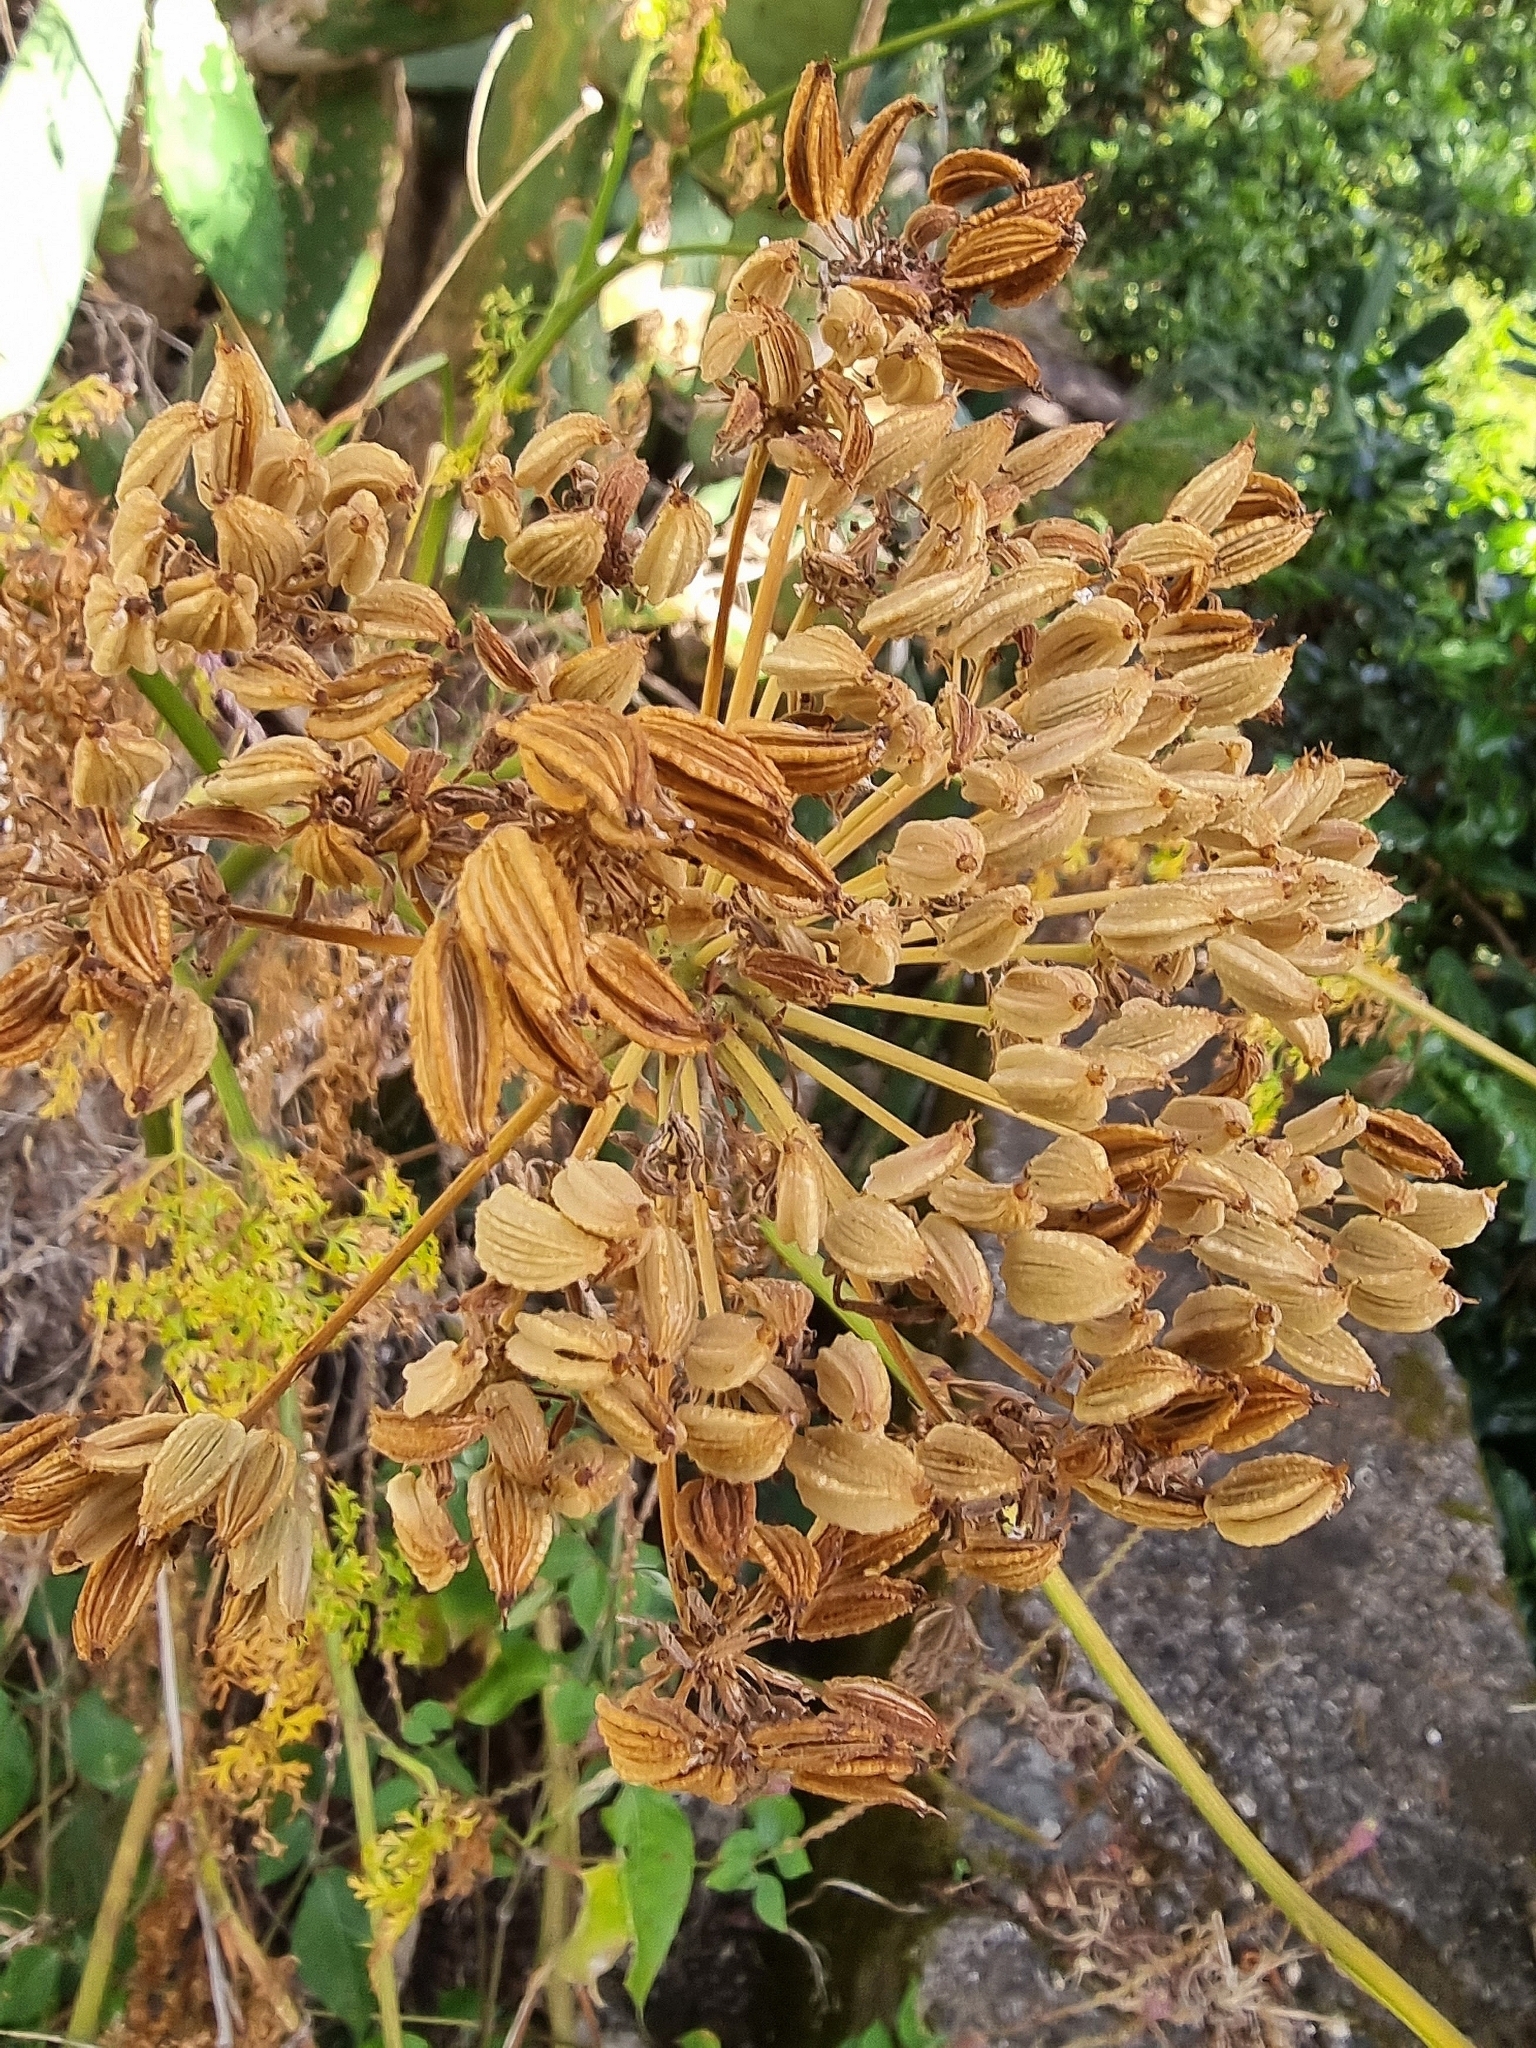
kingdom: Plantae
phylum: Tracheophyta
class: Magnoliopsida
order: Apiales
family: Apiaceae
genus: Daucus
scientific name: Daucus edulis
